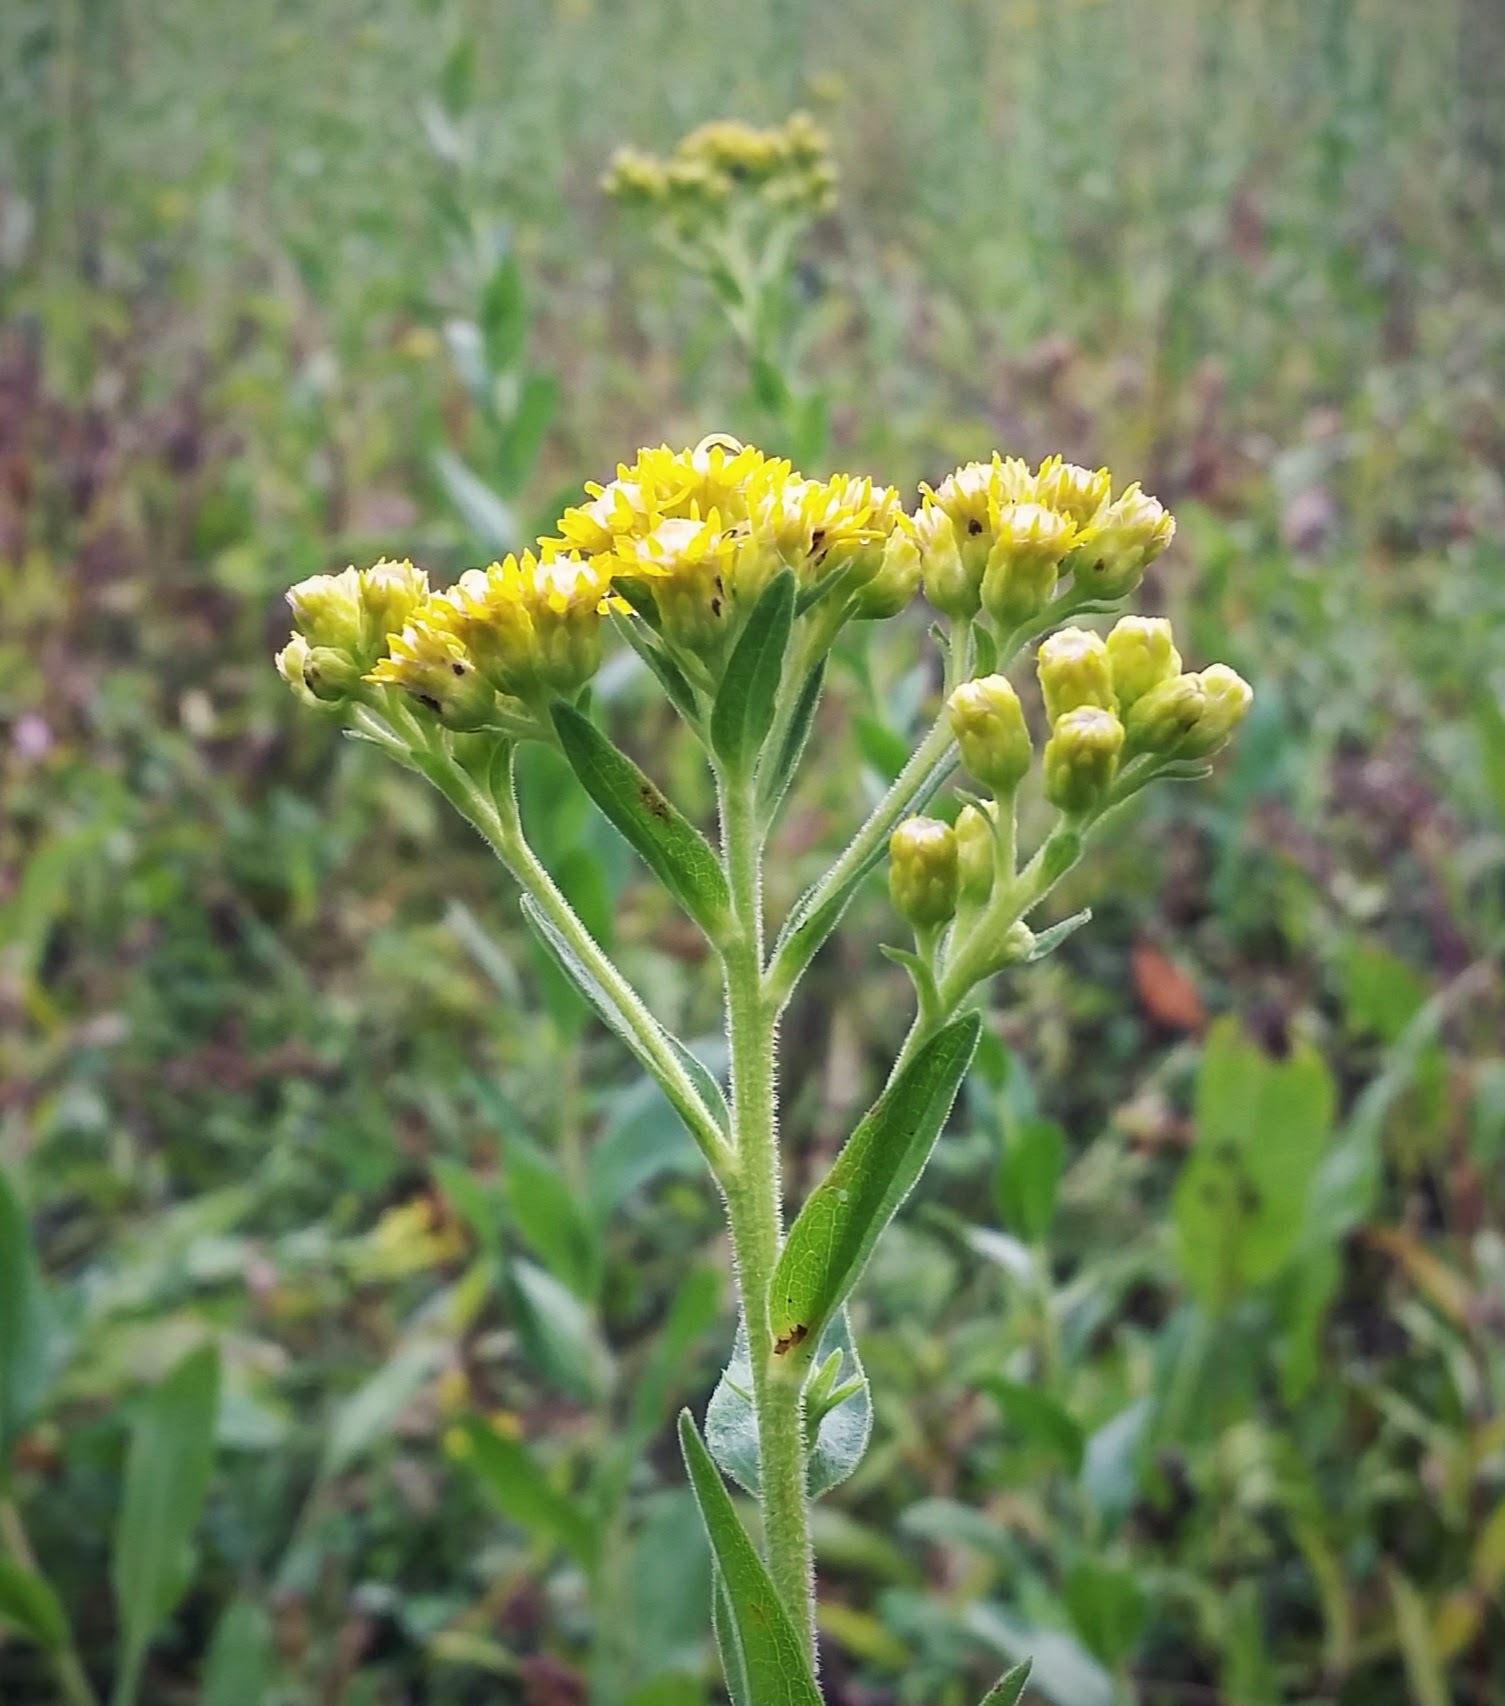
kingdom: Plantae
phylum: Tracheophyta
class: Magnoliopsida
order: Asterales
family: Asteraceae
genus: Solidago
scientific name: Solidago rigida
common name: Rigid goldenrod
